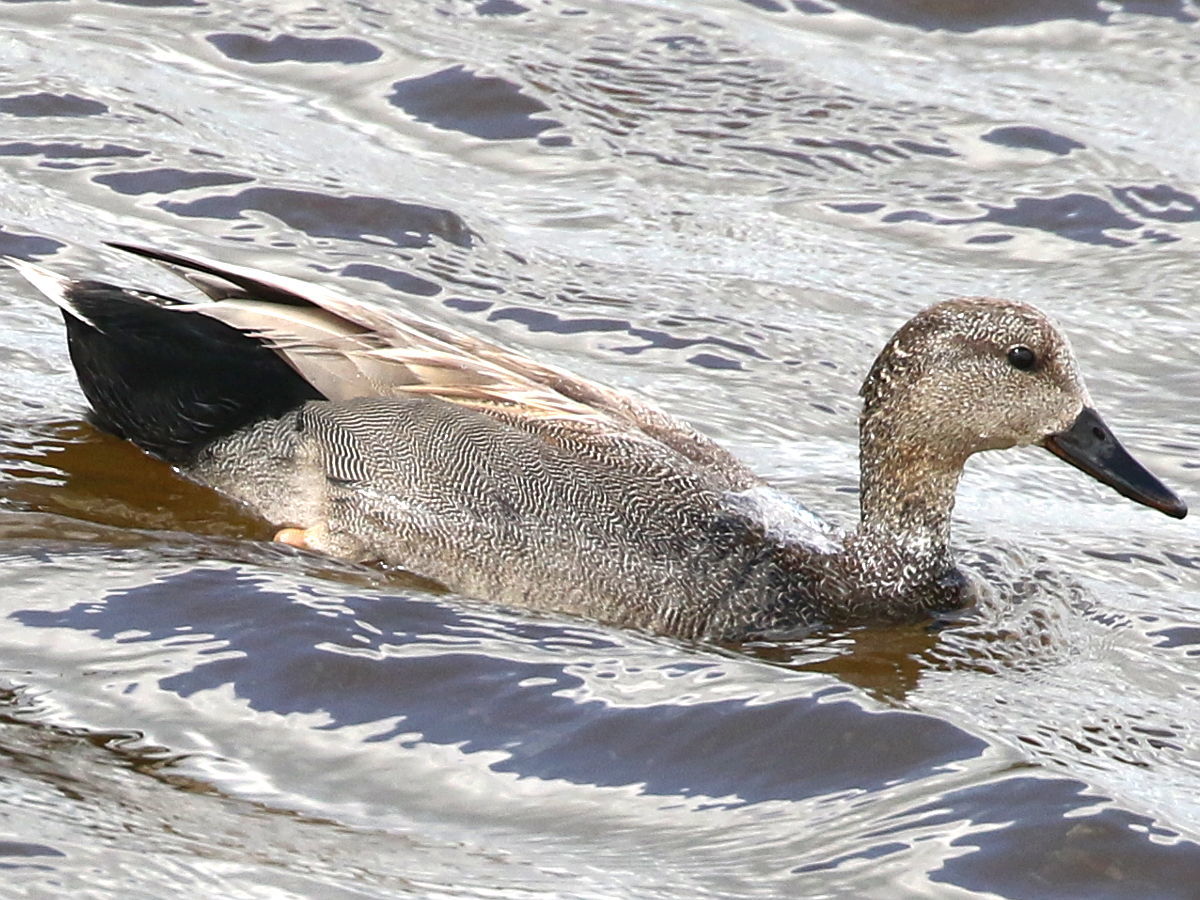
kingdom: Animalia
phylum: Chordata
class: Aves
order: Anseriformes
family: Anatidae
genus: Mareca
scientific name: Mareca strepera
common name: Gadwall
